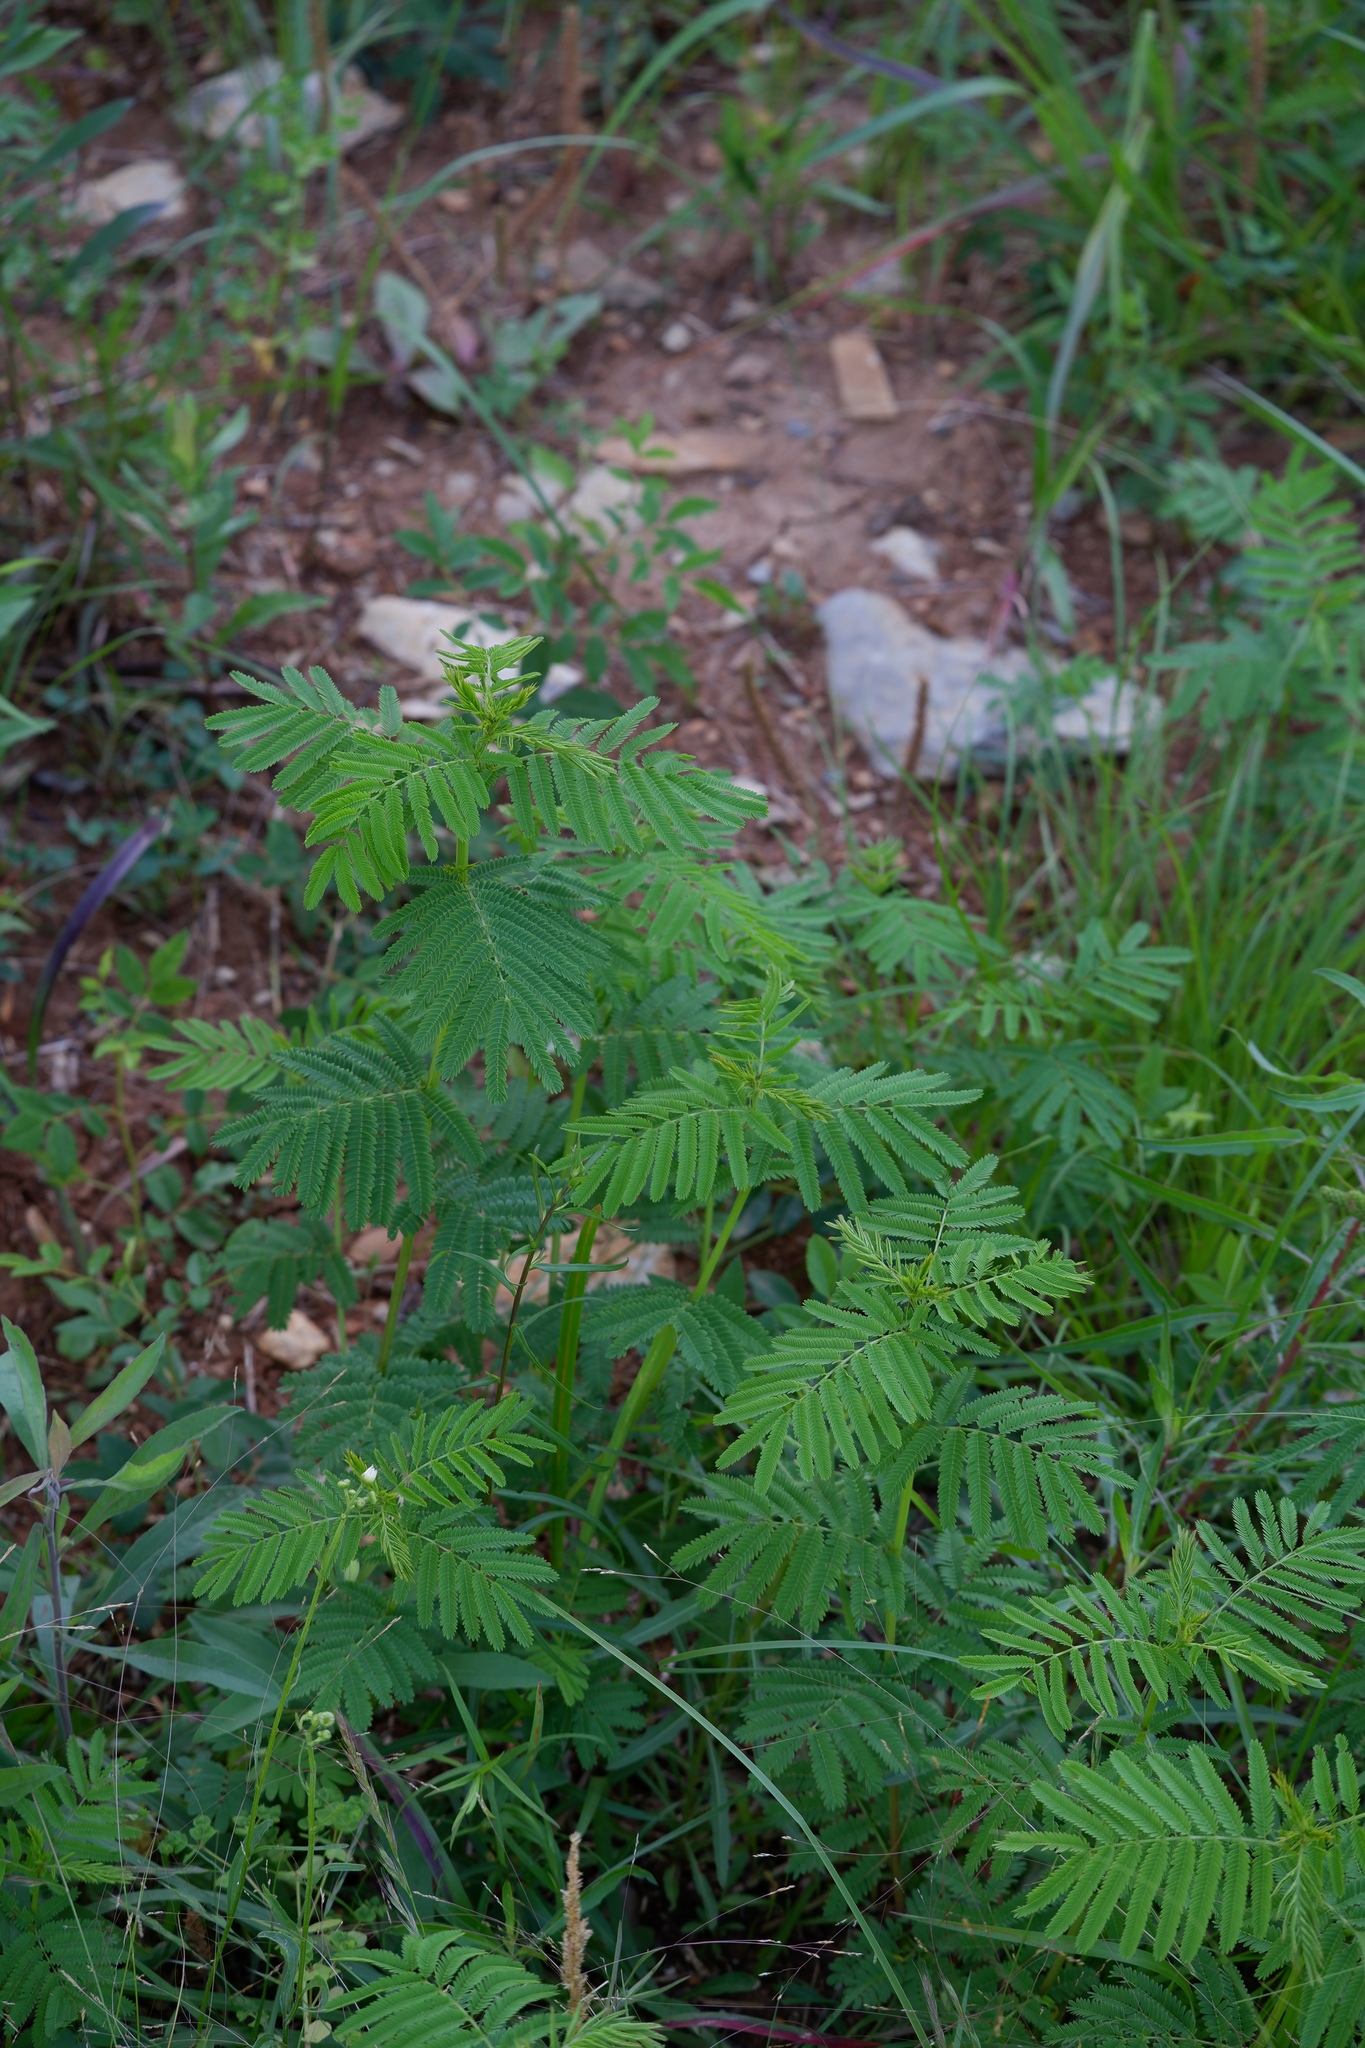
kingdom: Plantae
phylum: Tracheophyta
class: Magnoliopsida
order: Fabales
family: Fabaceae
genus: Desmanthus
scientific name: Desmanthus illinoensis
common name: Illinois bundle-flower
